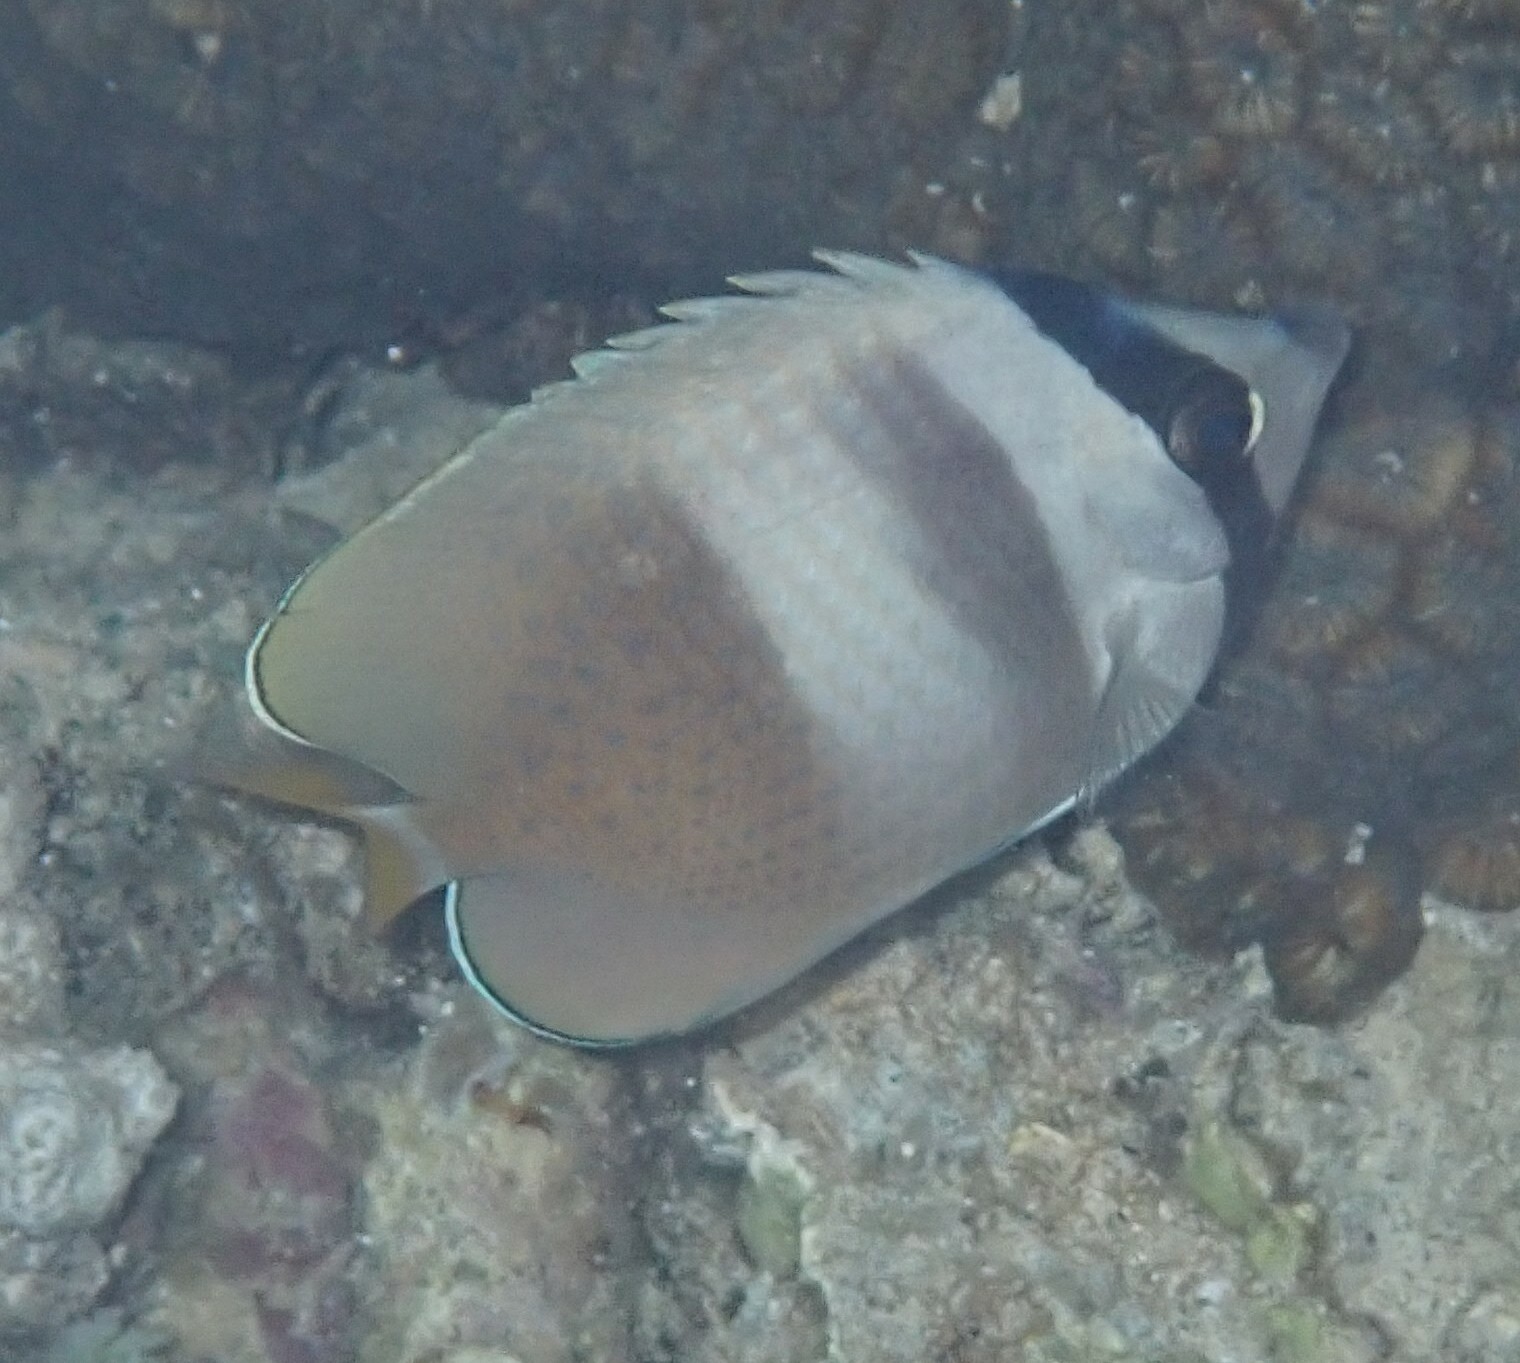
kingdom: Animalia
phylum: Chordata
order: Perciformes
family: Chaetodontidae
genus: Chaetodon
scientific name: Chaetodon kleinii
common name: Klein's butterflyfish
